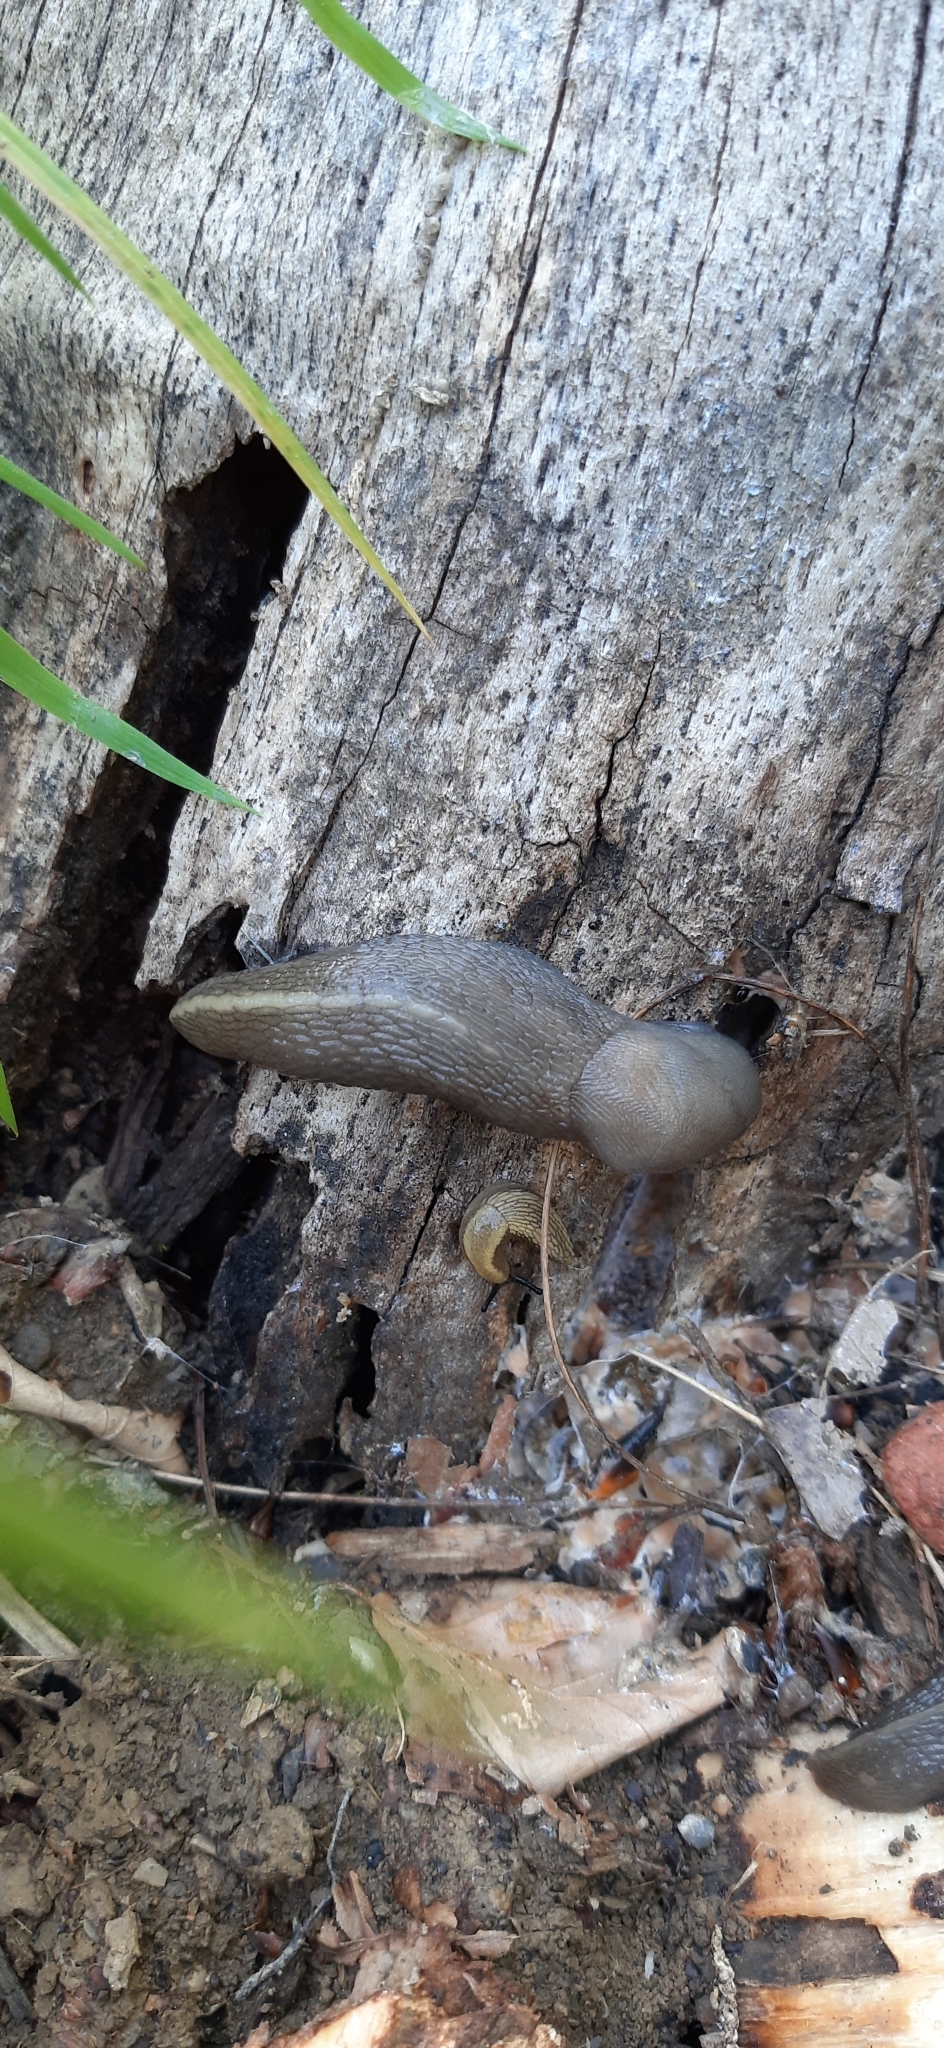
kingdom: Animalia
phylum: Mollusca
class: Gastropoda
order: Stylommatophora
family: Limacidae
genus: Limax
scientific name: Limax cinereoniger
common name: Ash-black slug
